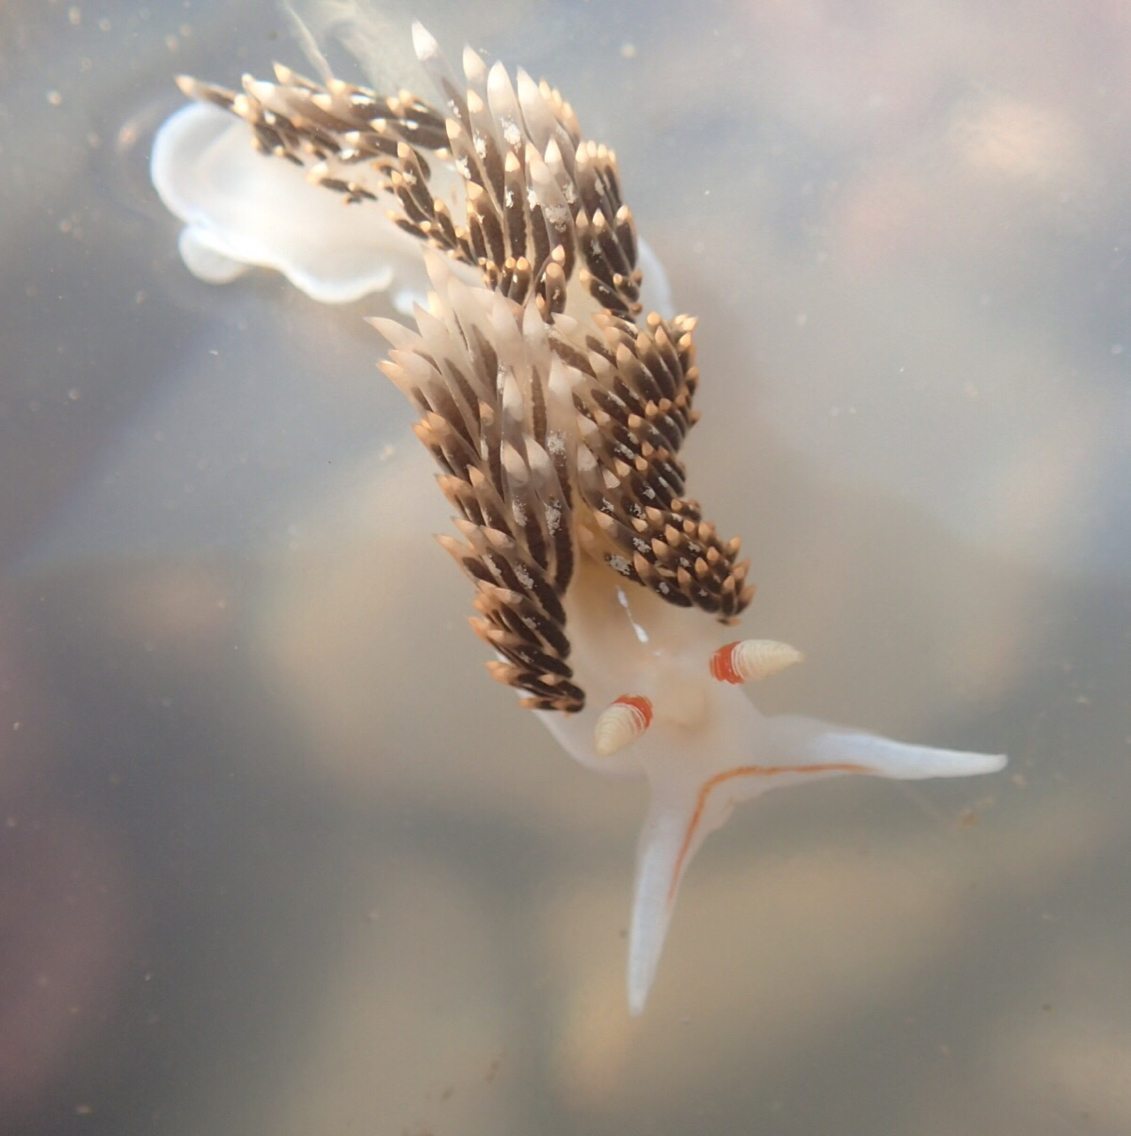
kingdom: Animalia
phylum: Mollusca
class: Gastropoda
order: Nudibranchia
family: Facelinidae
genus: Phidiana
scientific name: Phidiana hiltoni
